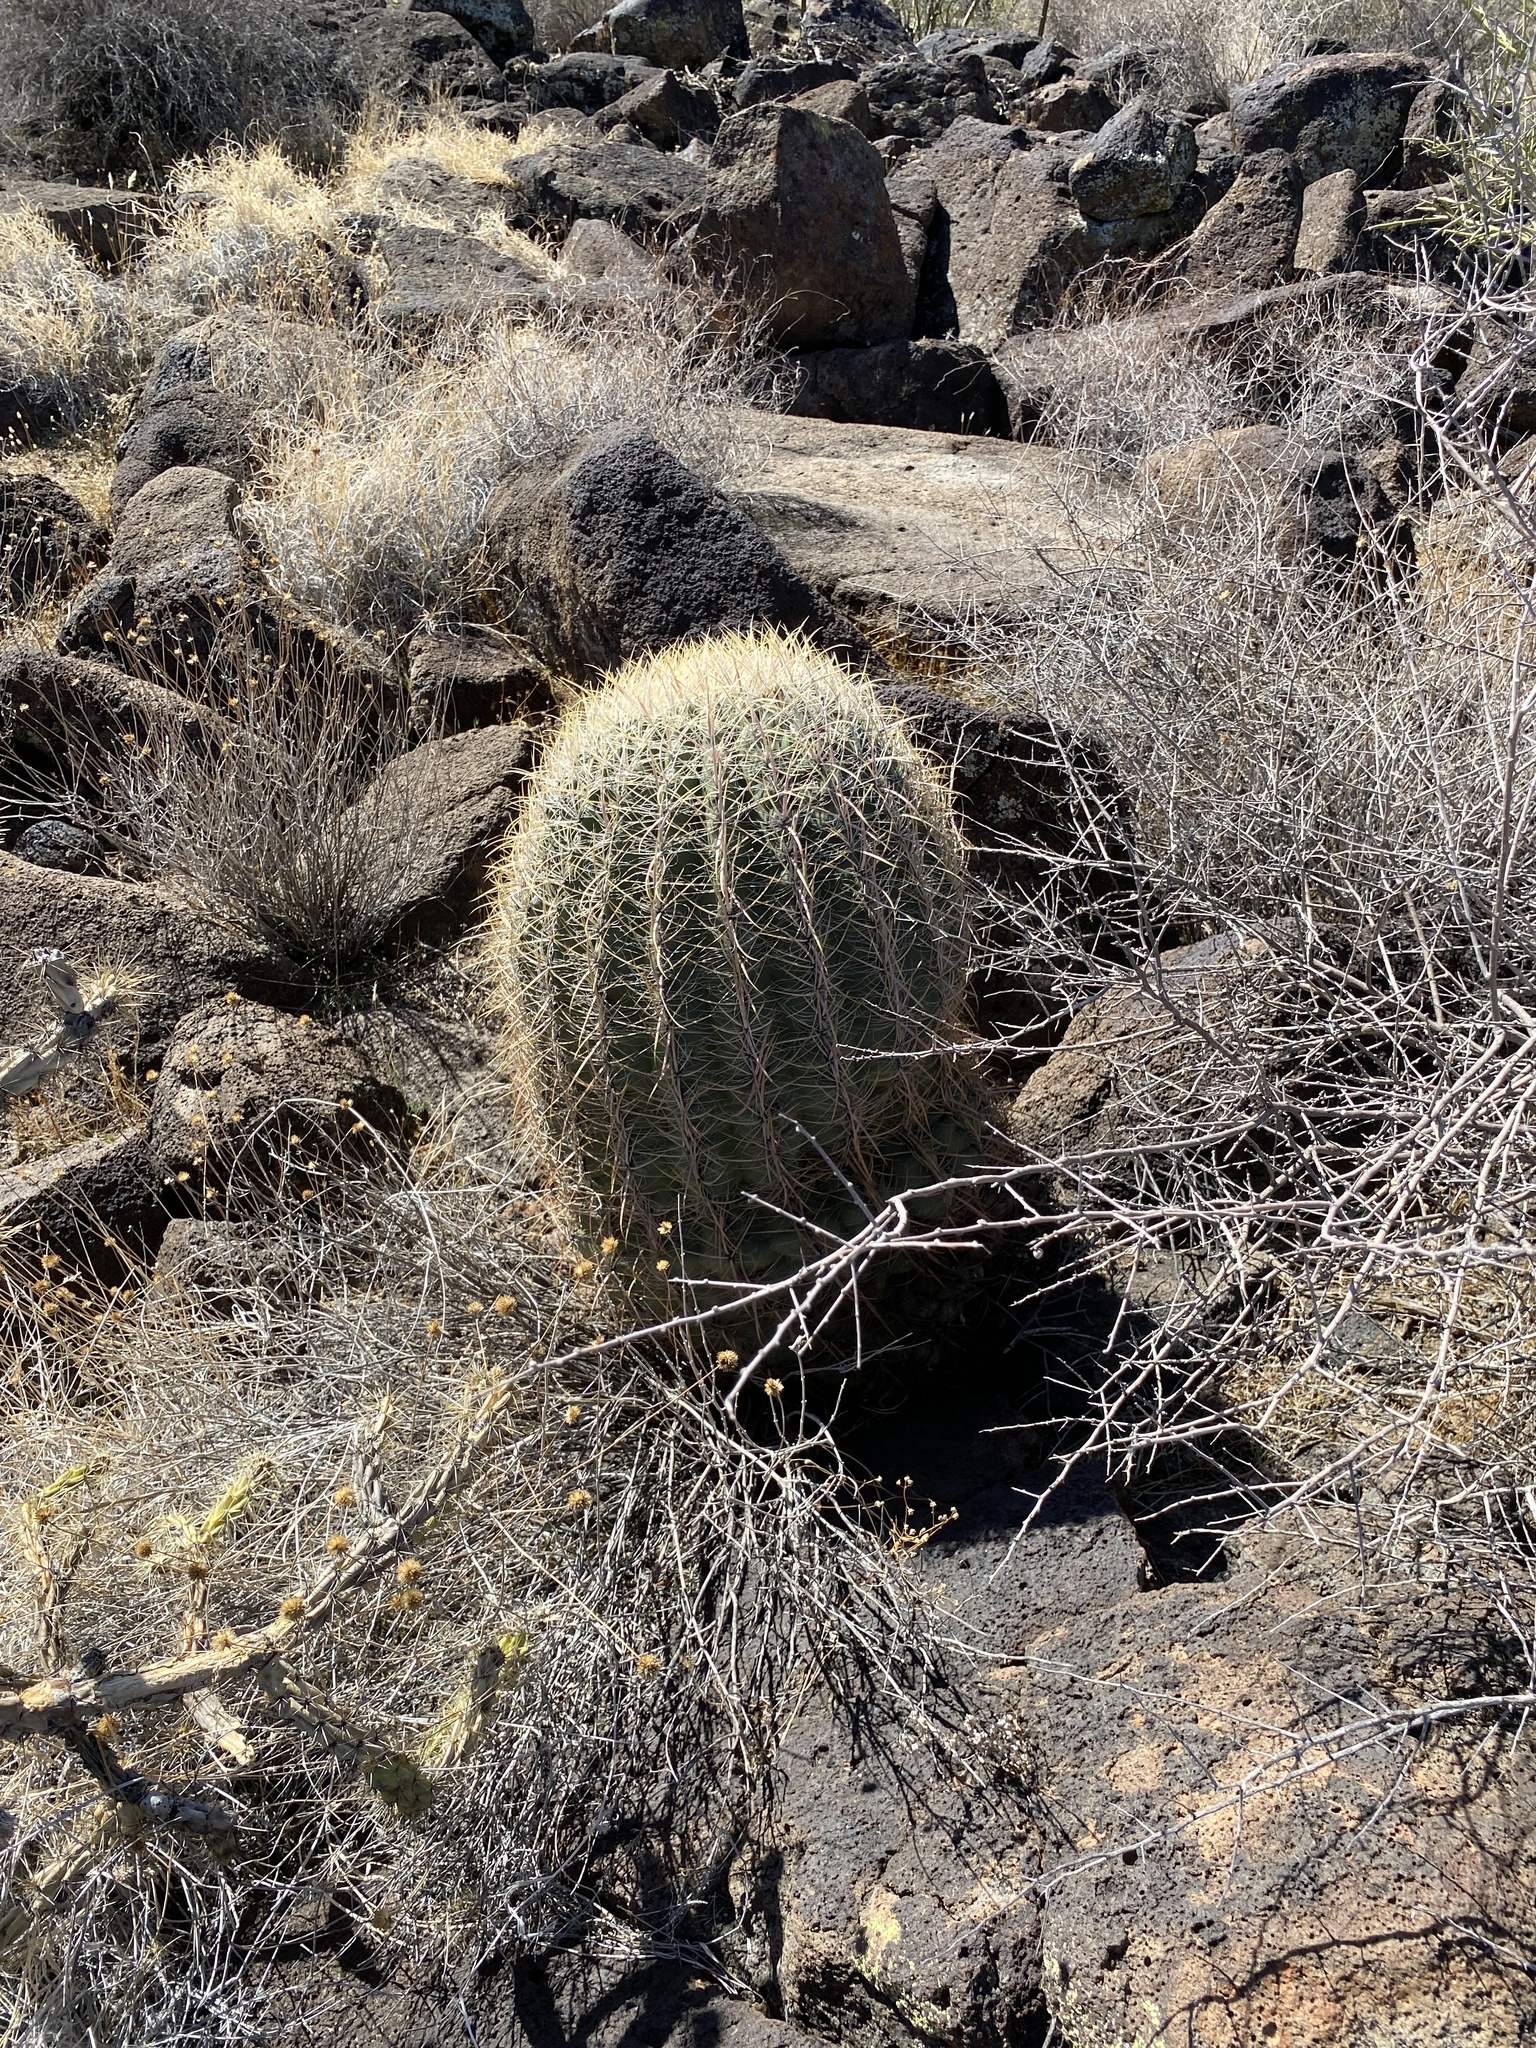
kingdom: Plantae
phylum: Tracheophyta
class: Magnoliopsida
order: Caryophyllales
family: Cactaceae
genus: Ferocactus
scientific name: Ferocactus cylindraceus
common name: California barrel cactus
